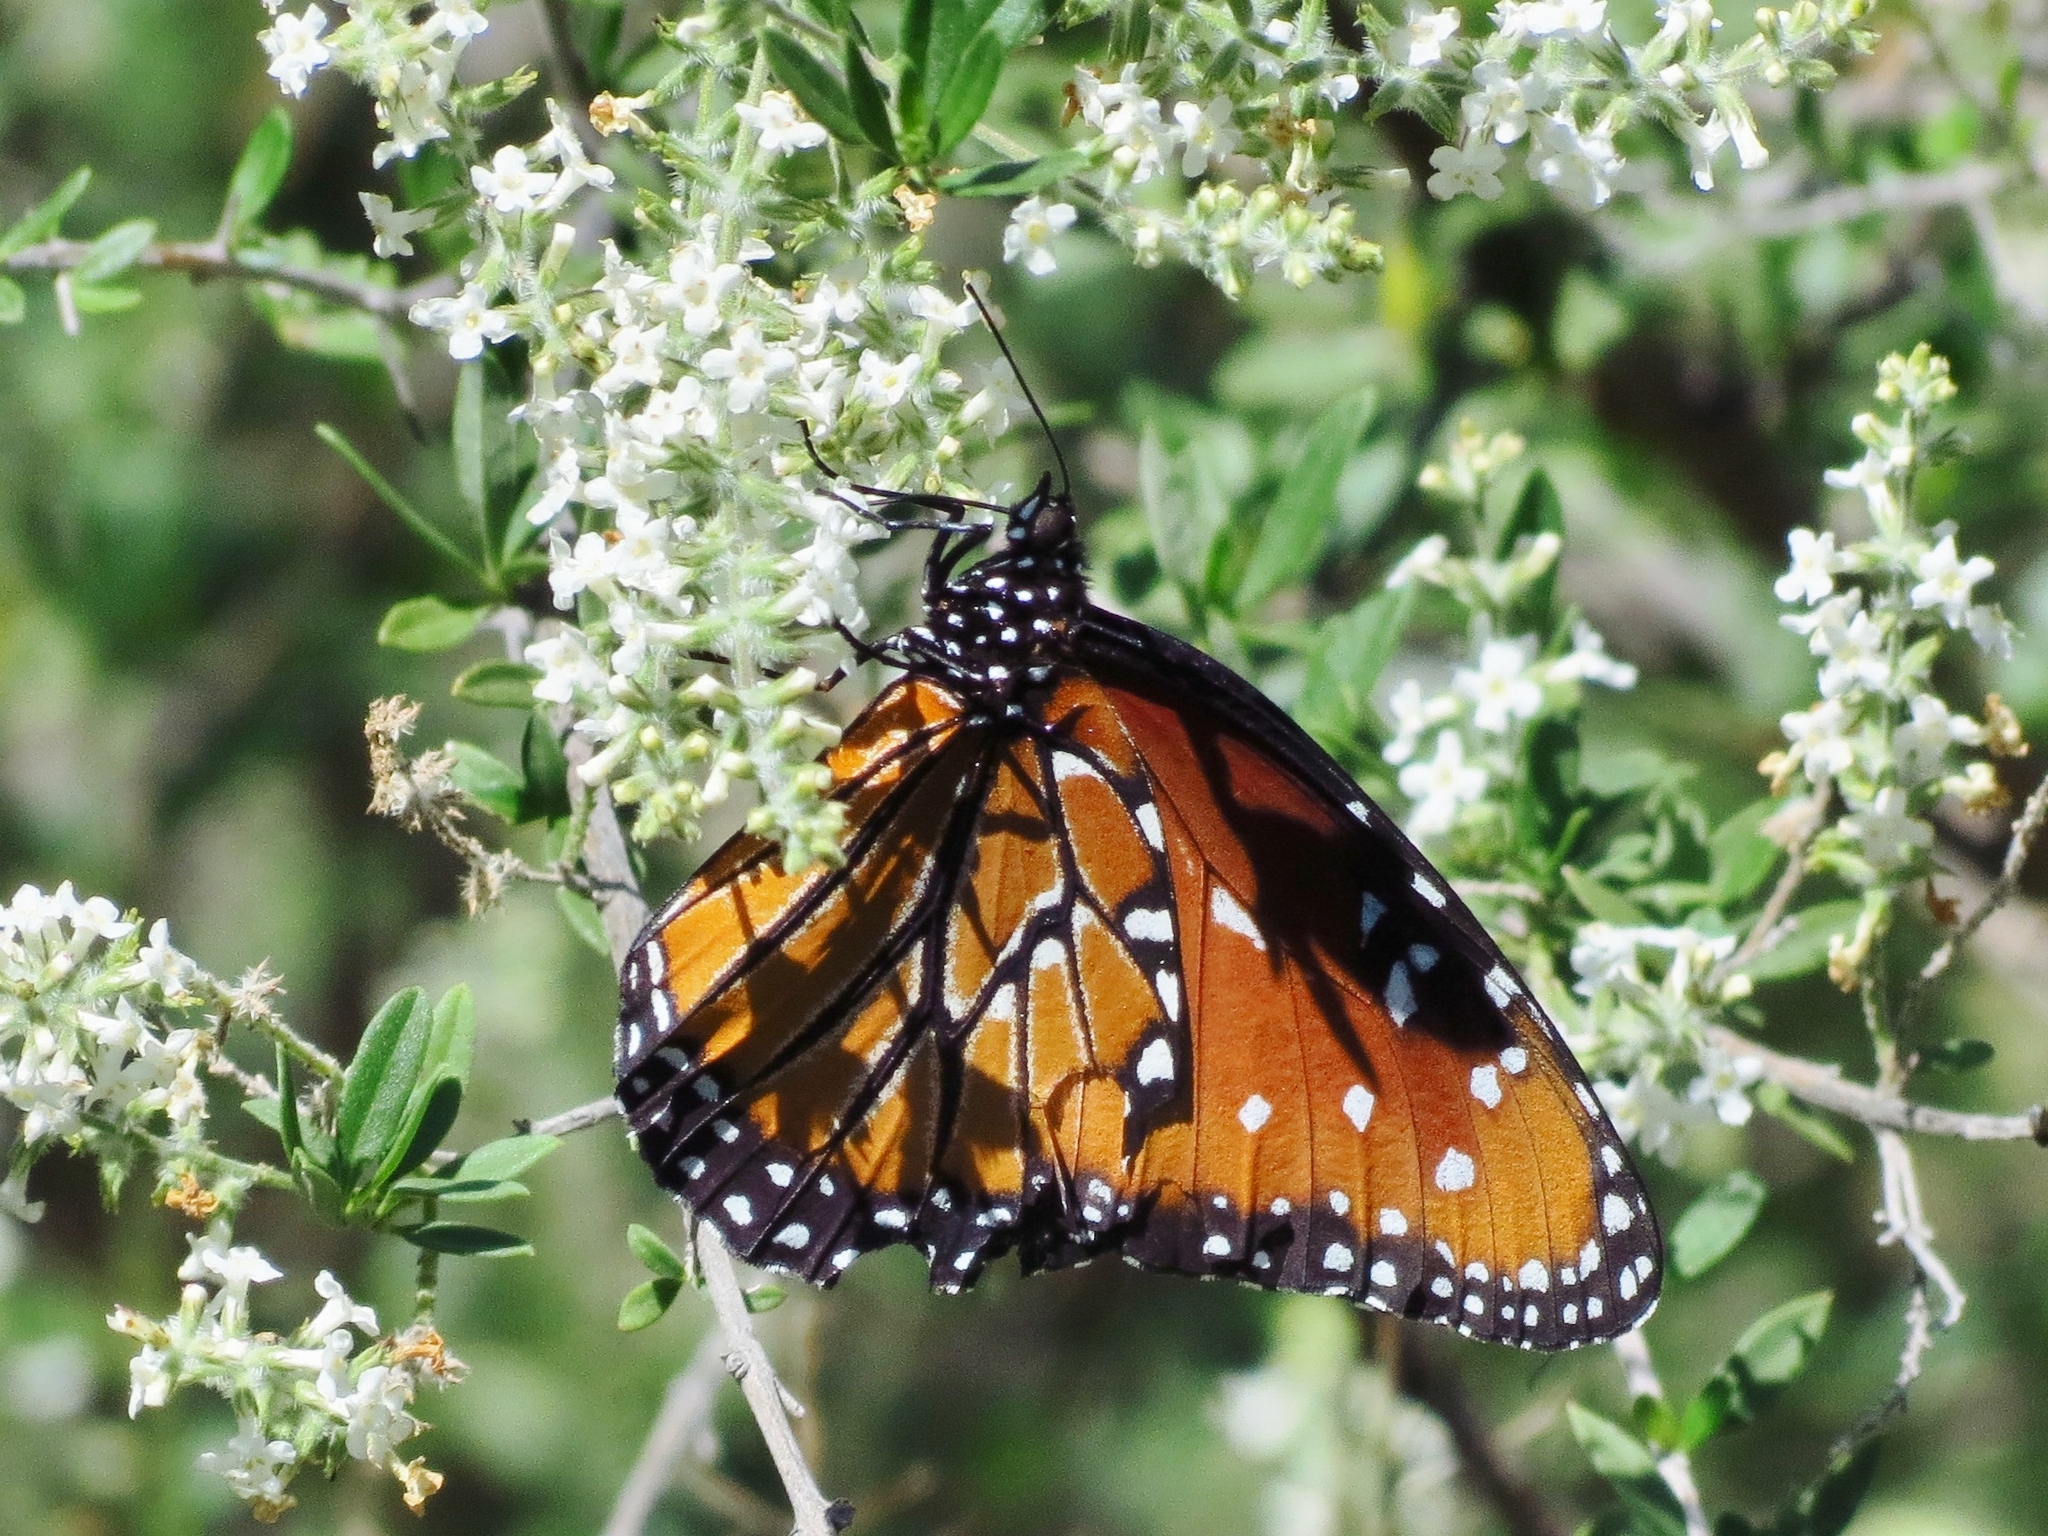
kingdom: Animalia
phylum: Arthropoda
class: Insecta
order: Lepidoptera
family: Nymphalidae
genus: Danaus
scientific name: Danaus gilippus
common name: Queen
